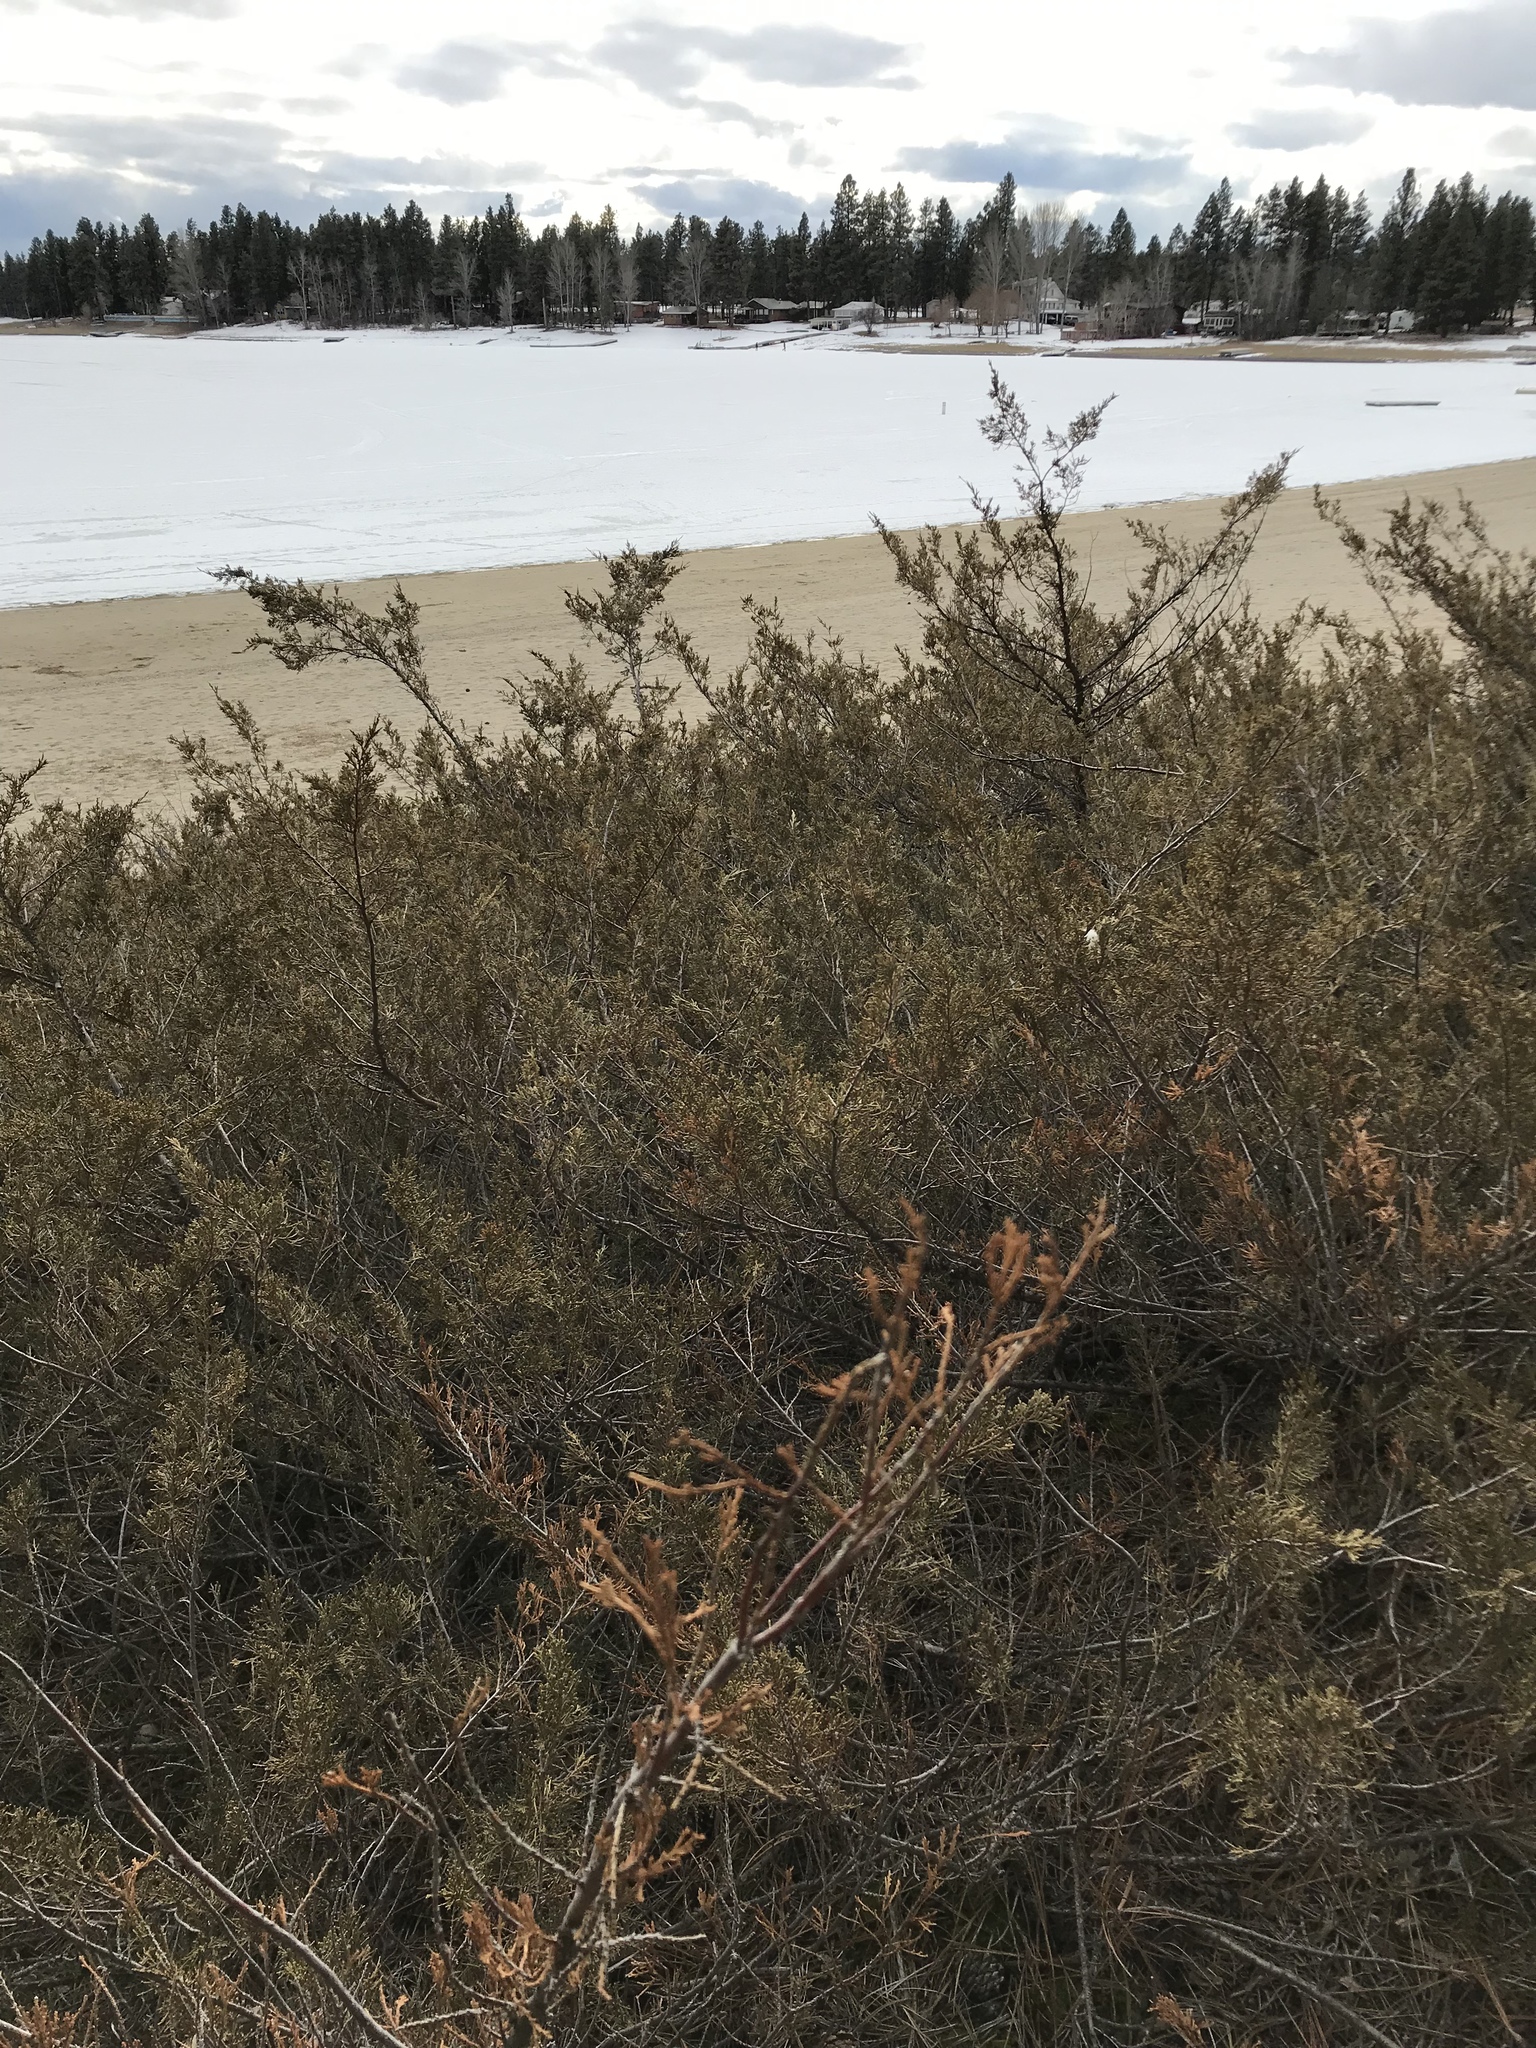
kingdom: Plantae
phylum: Tracheophyta
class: Pinopsida
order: Pinales
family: Cupressaceae
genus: Juniperus
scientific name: Juniperus scopulorum
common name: Rocky mountain juniper
